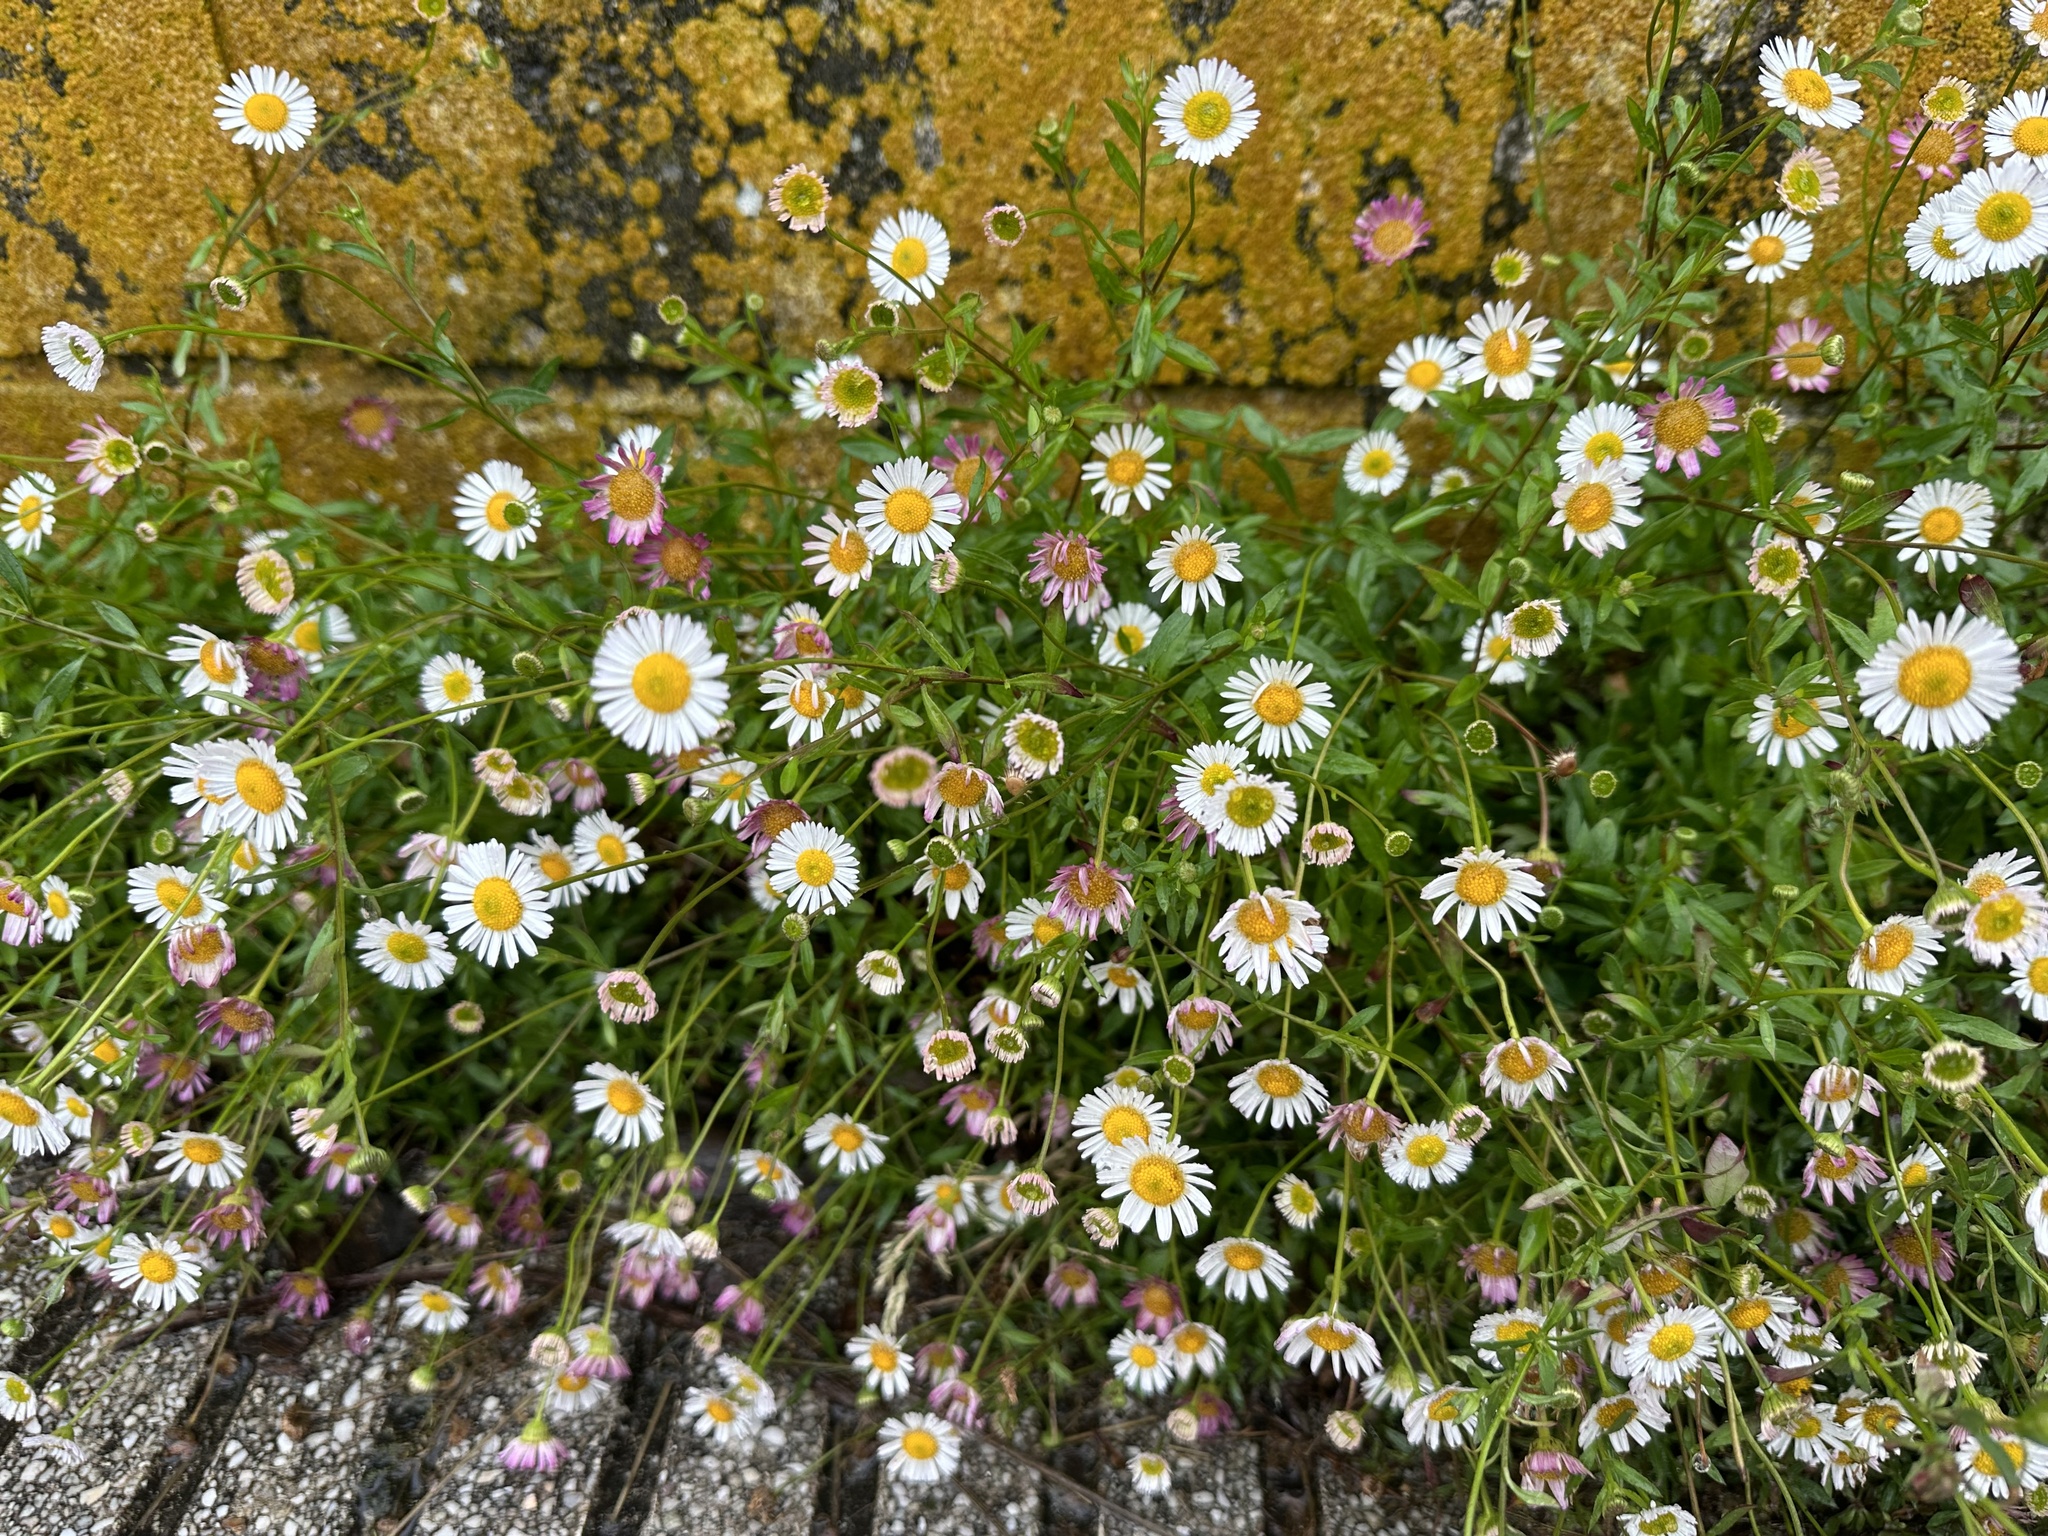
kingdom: Plantae
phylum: Tracheophyta
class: Magnoliopsida
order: Asterales
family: Asteraceae
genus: Erigeron
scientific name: Erigeron karvinskianus
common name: Mexican fleabane
